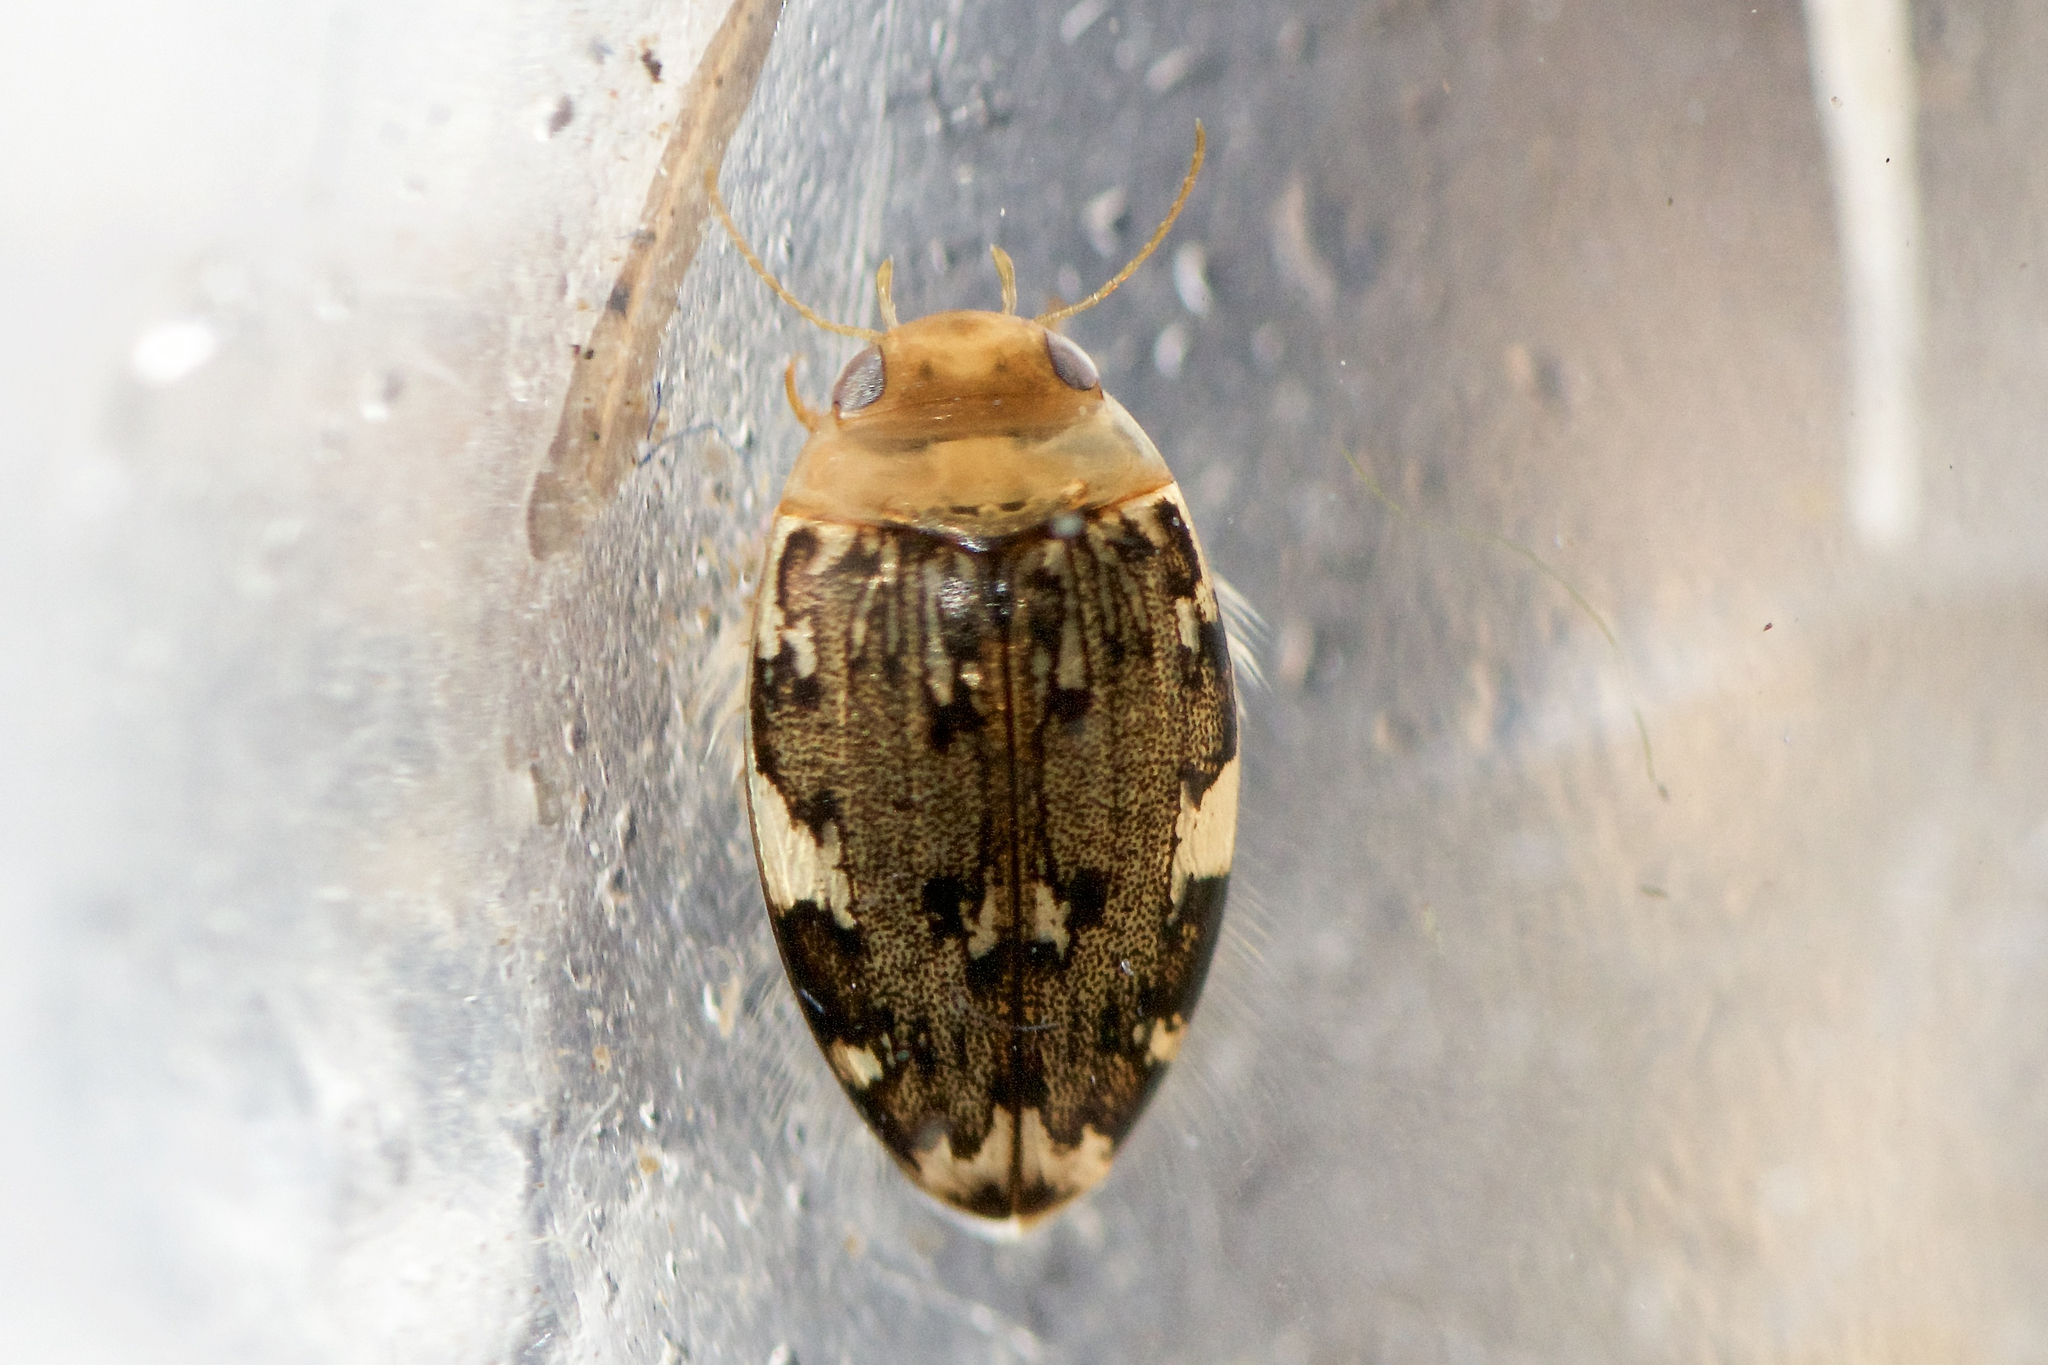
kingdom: Animalia
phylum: Arthropoda
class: Insecta
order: Coleoptera
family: Dytiscidae
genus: Laccophilus
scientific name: Laccophilus maculosus
